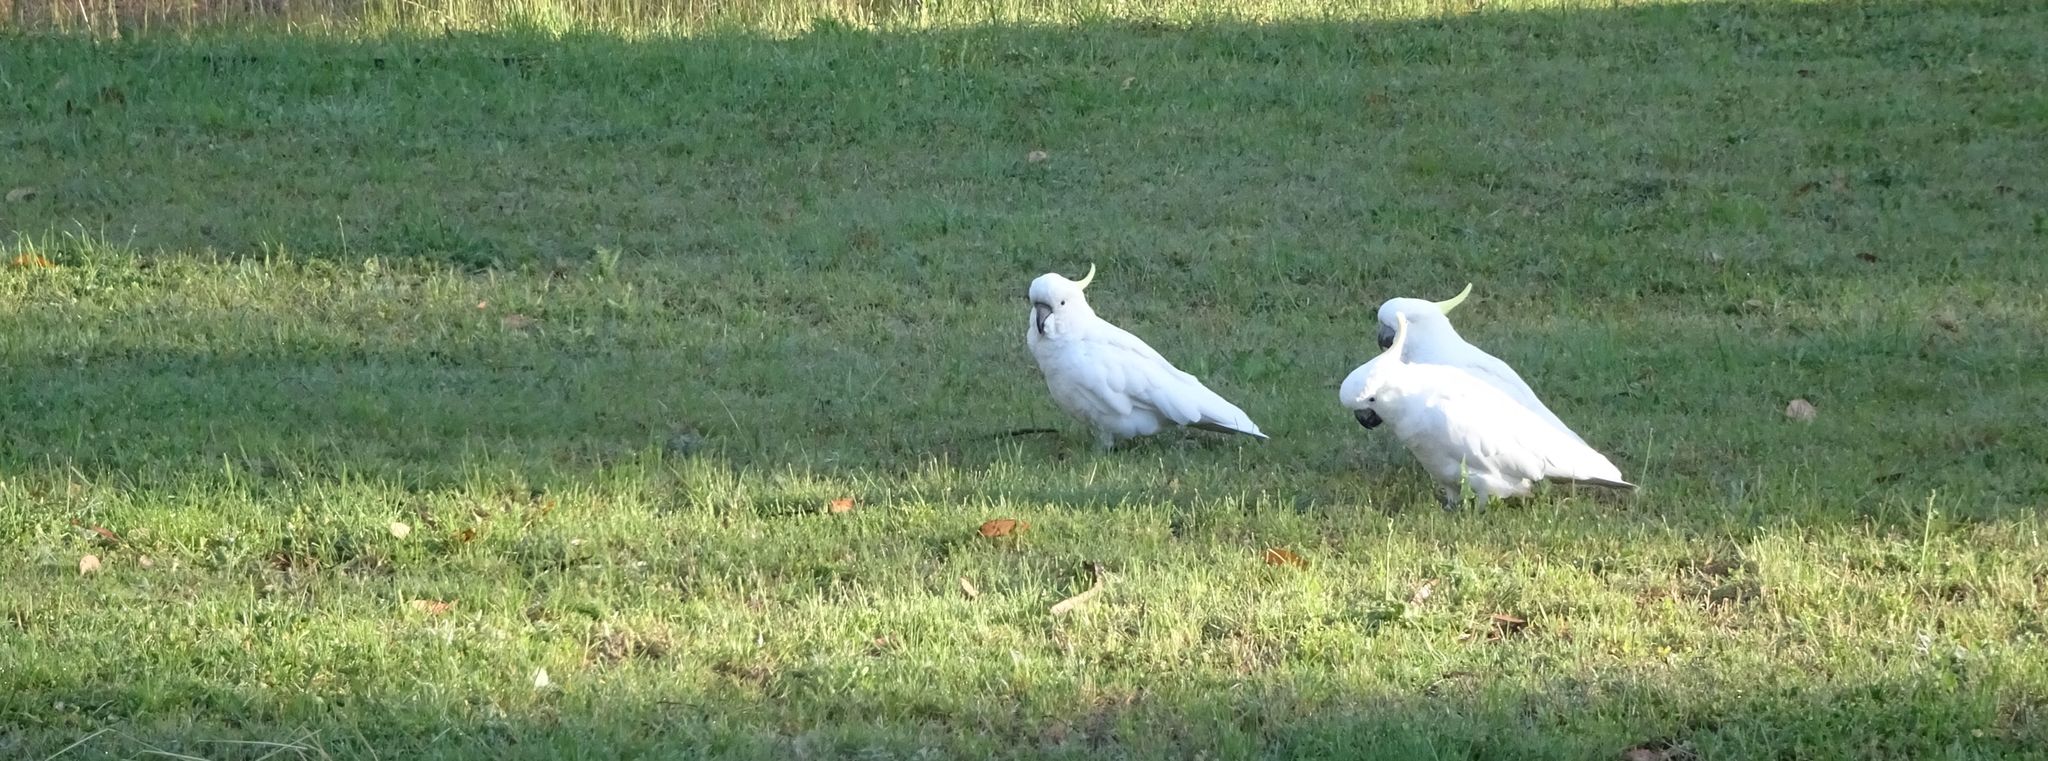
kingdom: Animalia
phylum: Chordata
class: Aves
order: Psittaciformes
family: Psittacidae
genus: Cacatua
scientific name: Cacatua galerita
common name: Sulphur-crested cockatoo
